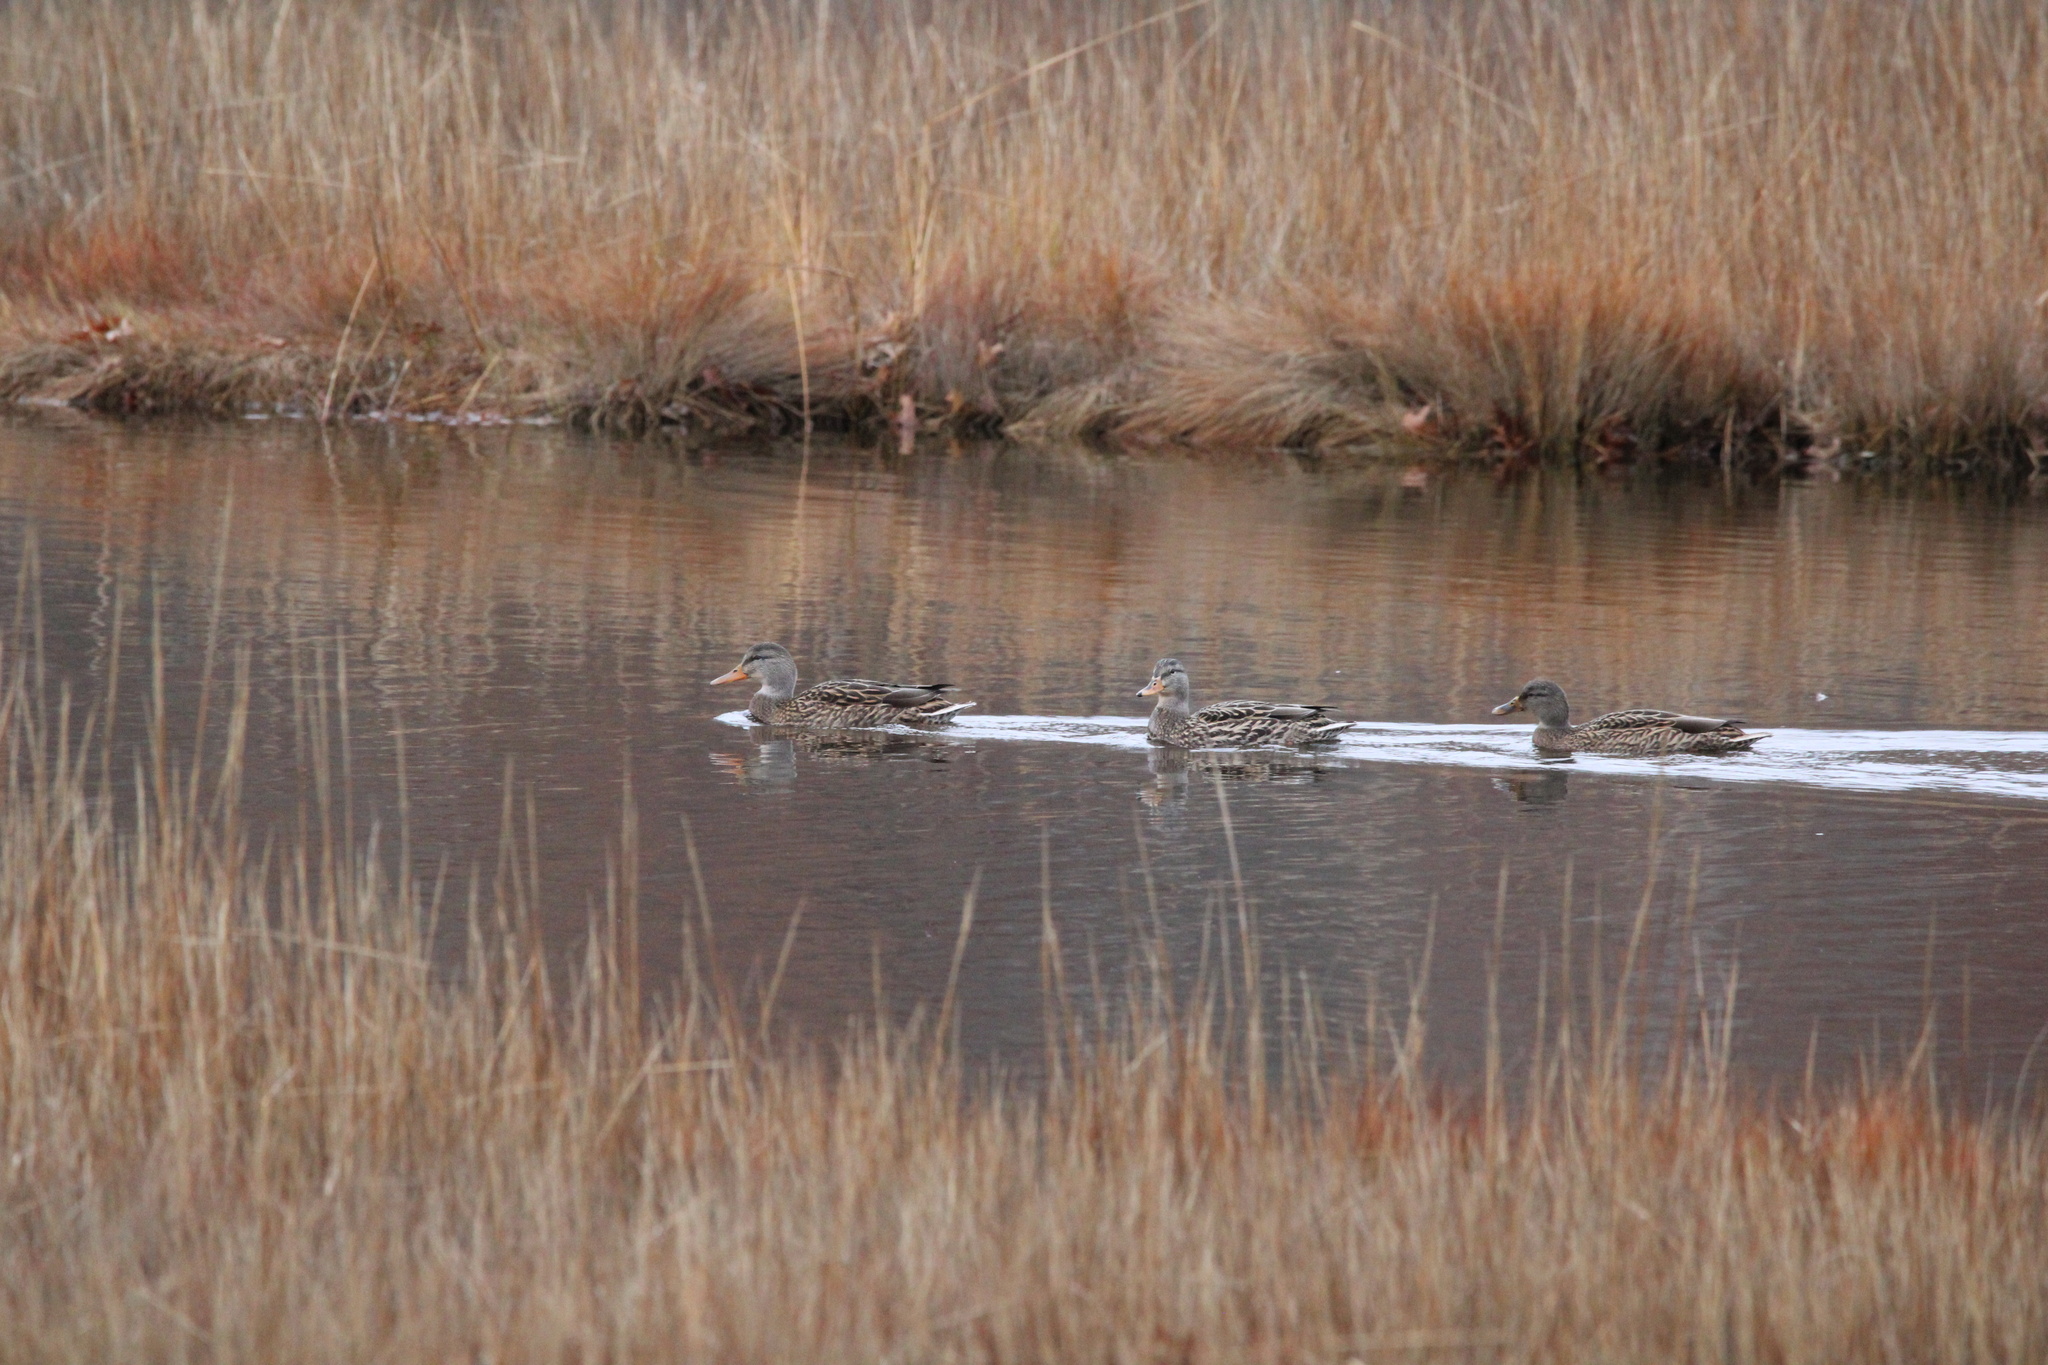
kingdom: Animalia
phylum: Chordata
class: Aves
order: Anseriformes
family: Anatidae
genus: Anas
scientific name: Anas platyrhynchos
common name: Mallard
